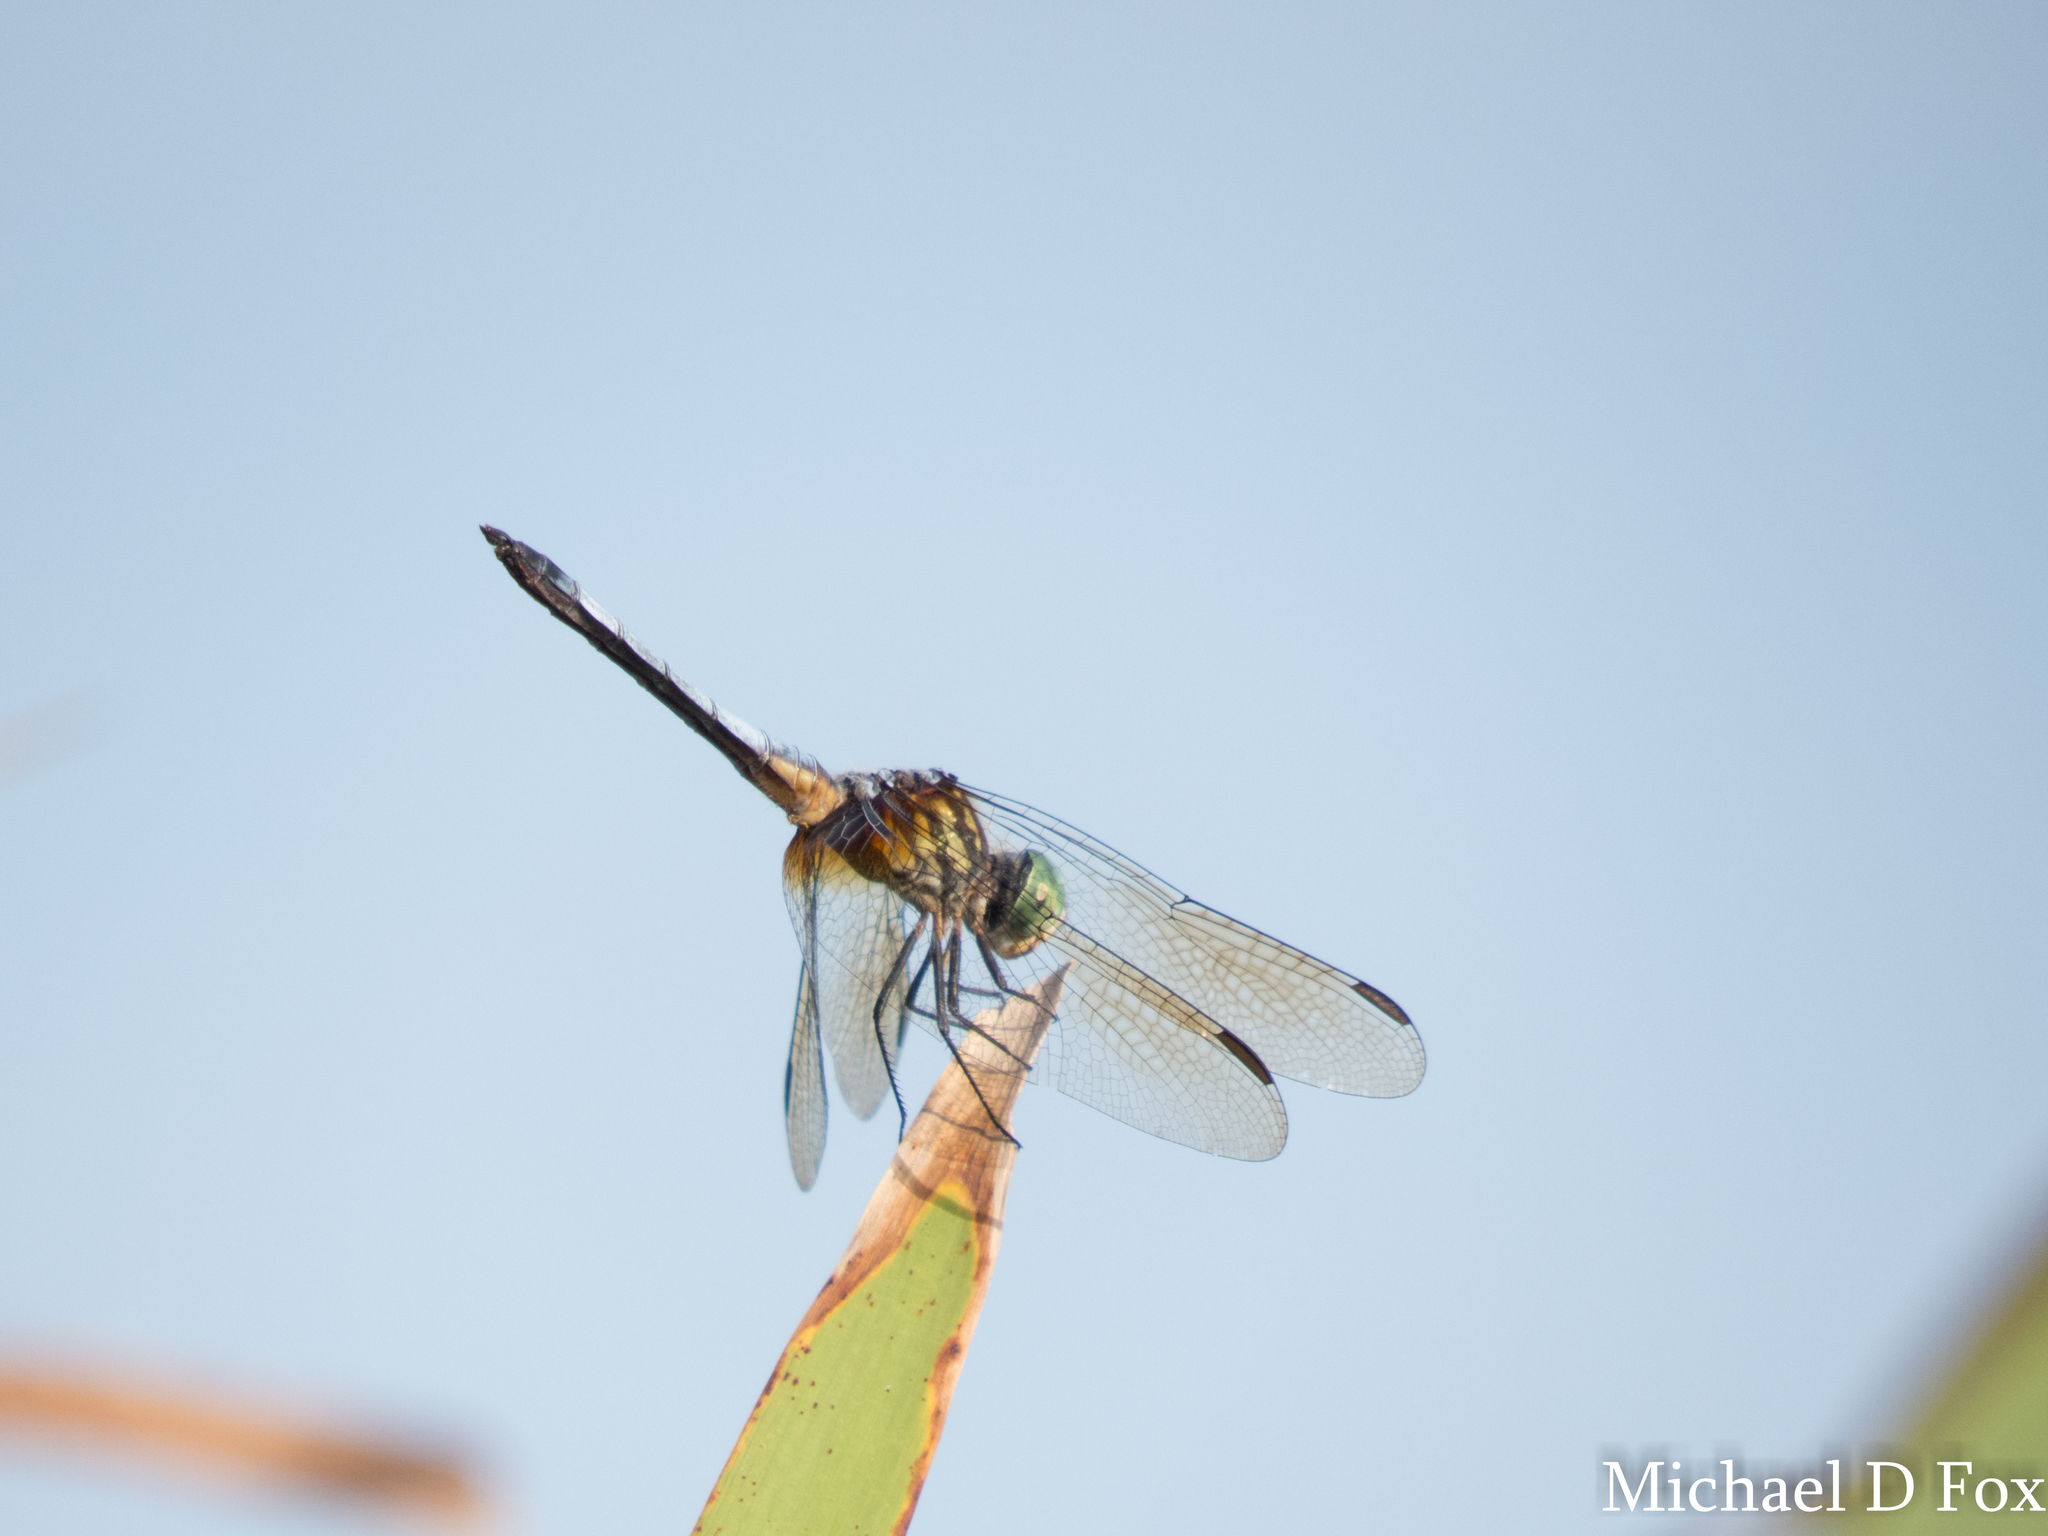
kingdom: Animalia
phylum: Arthropoda
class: Insecta
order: Odonata
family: Libellulidae
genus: Pachydiplax
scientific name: Pachydiplax longipennis
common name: Blue dasher
